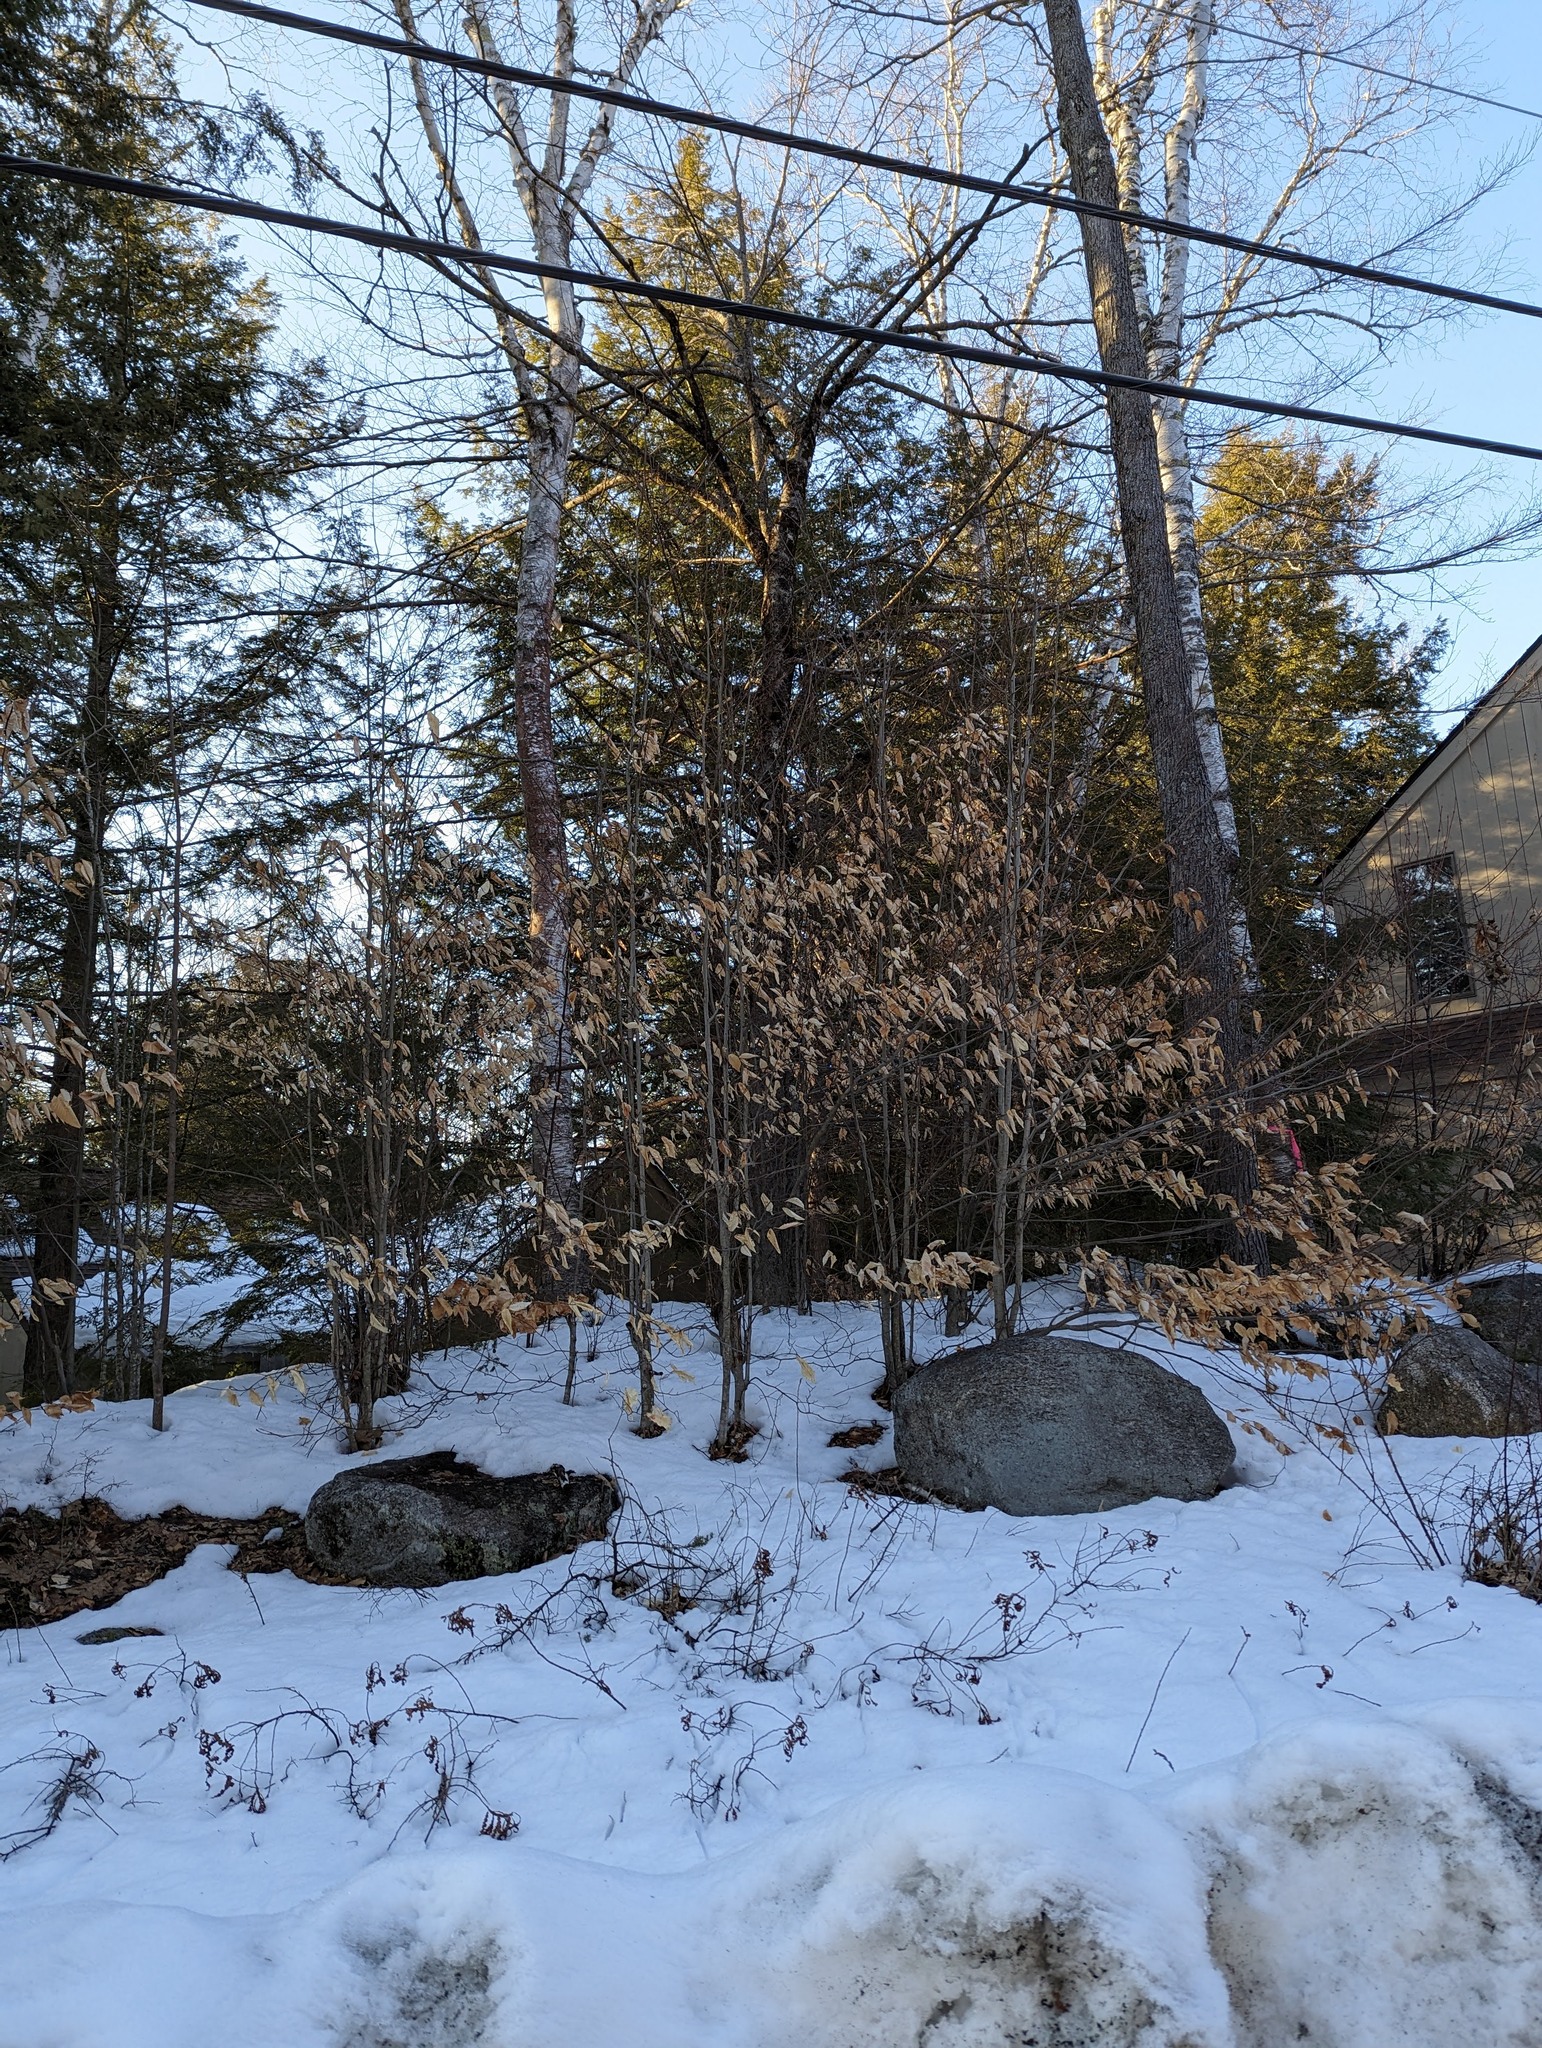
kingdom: Plantae
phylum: Tracheophyta
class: Magnoliopsida
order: Fagales
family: Fagaceae
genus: Fagus
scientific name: Fagus grandifolia
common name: American beech
